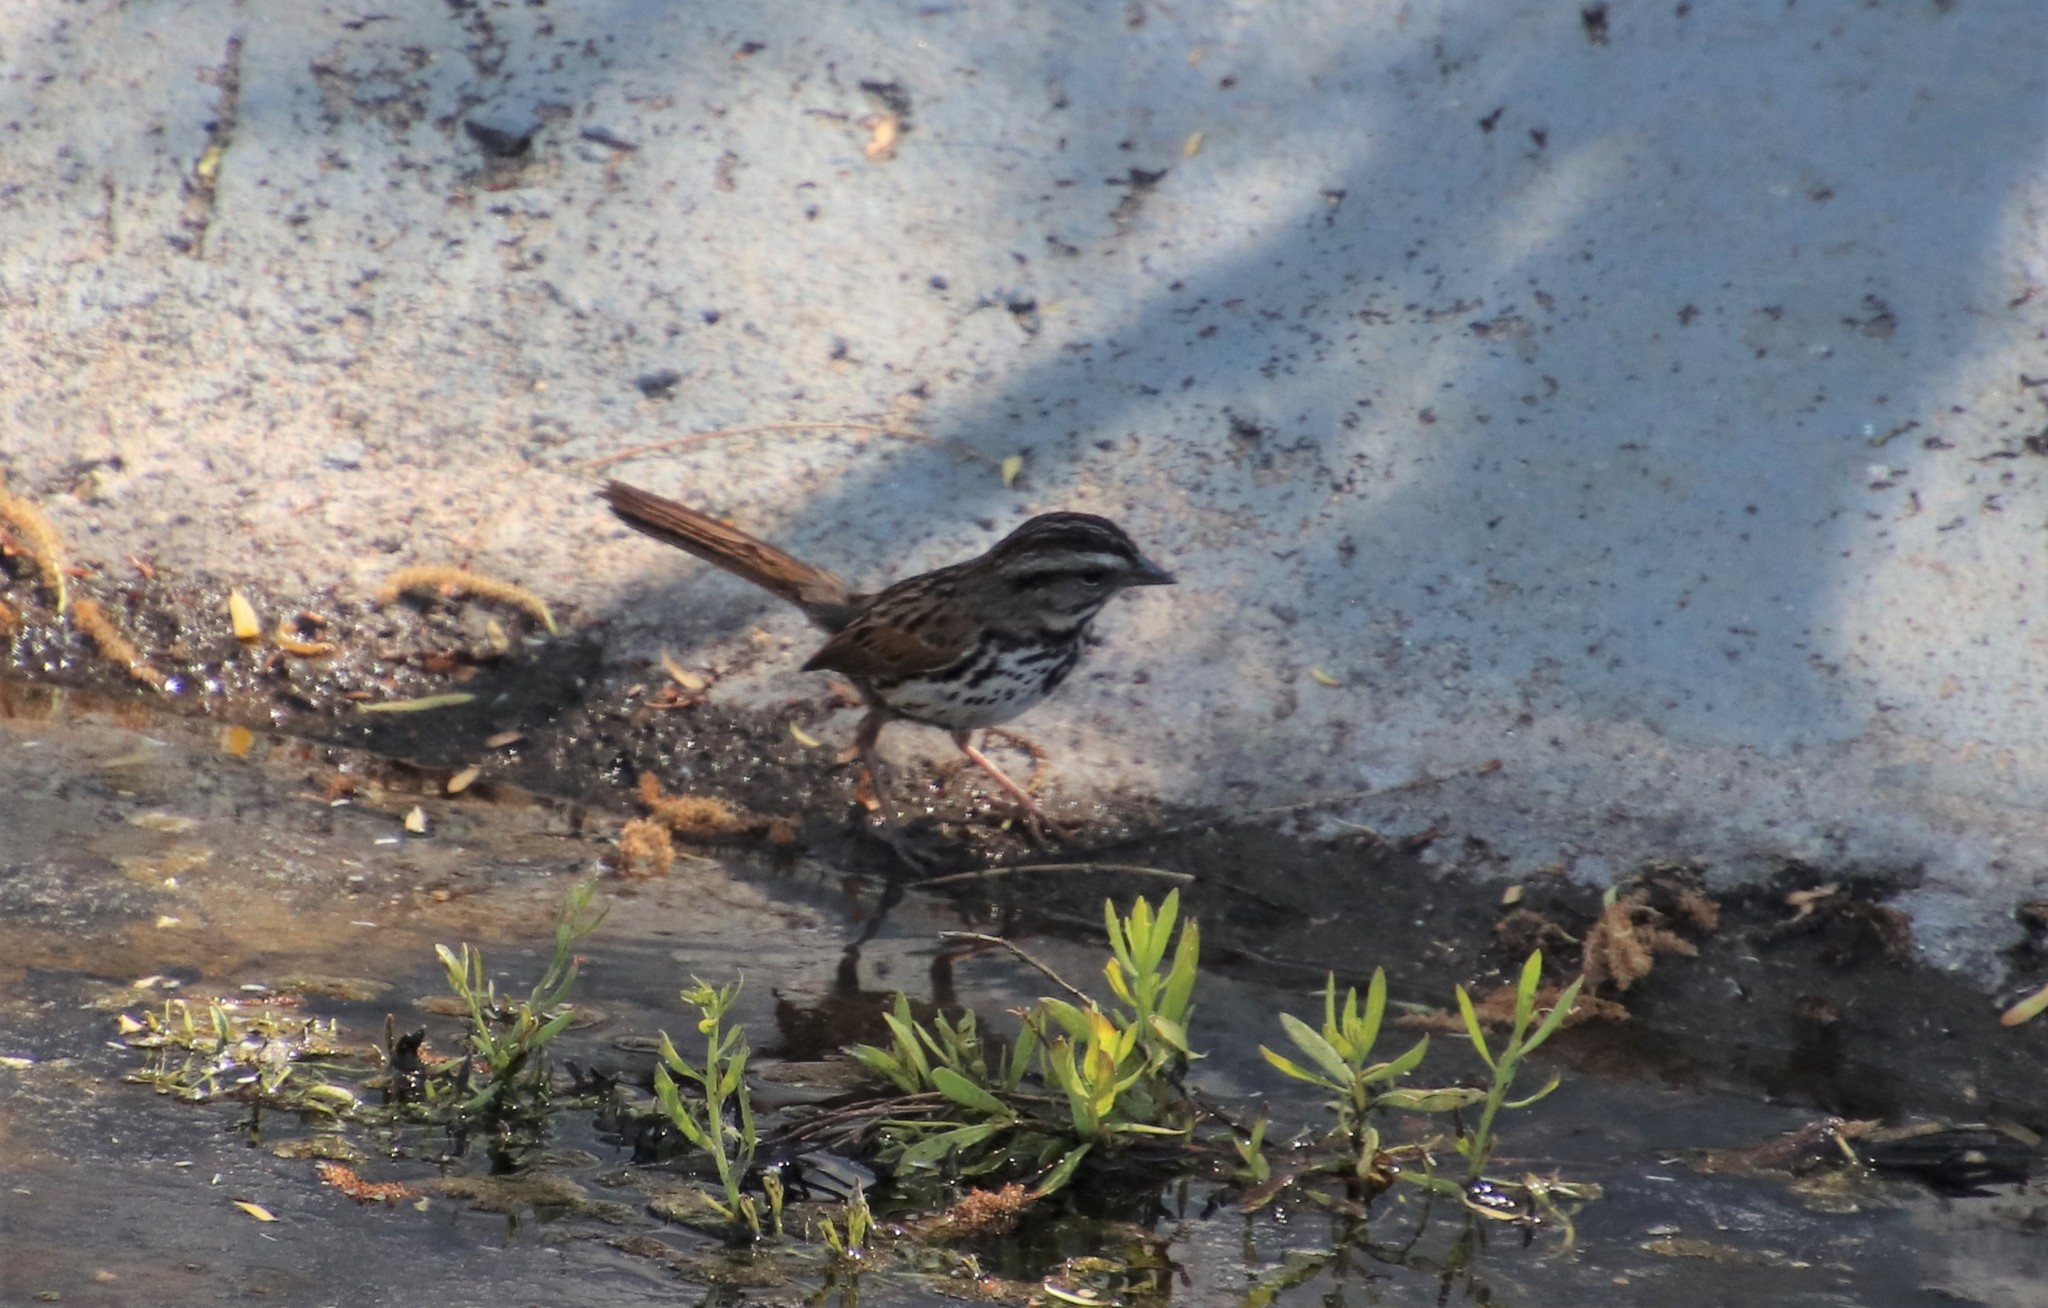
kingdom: Animalia
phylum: Chordata
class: Aves
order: Passeriformes
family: Passerellidae
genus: Melospiza
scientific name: Melospiza melodia
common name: Song sparrow
